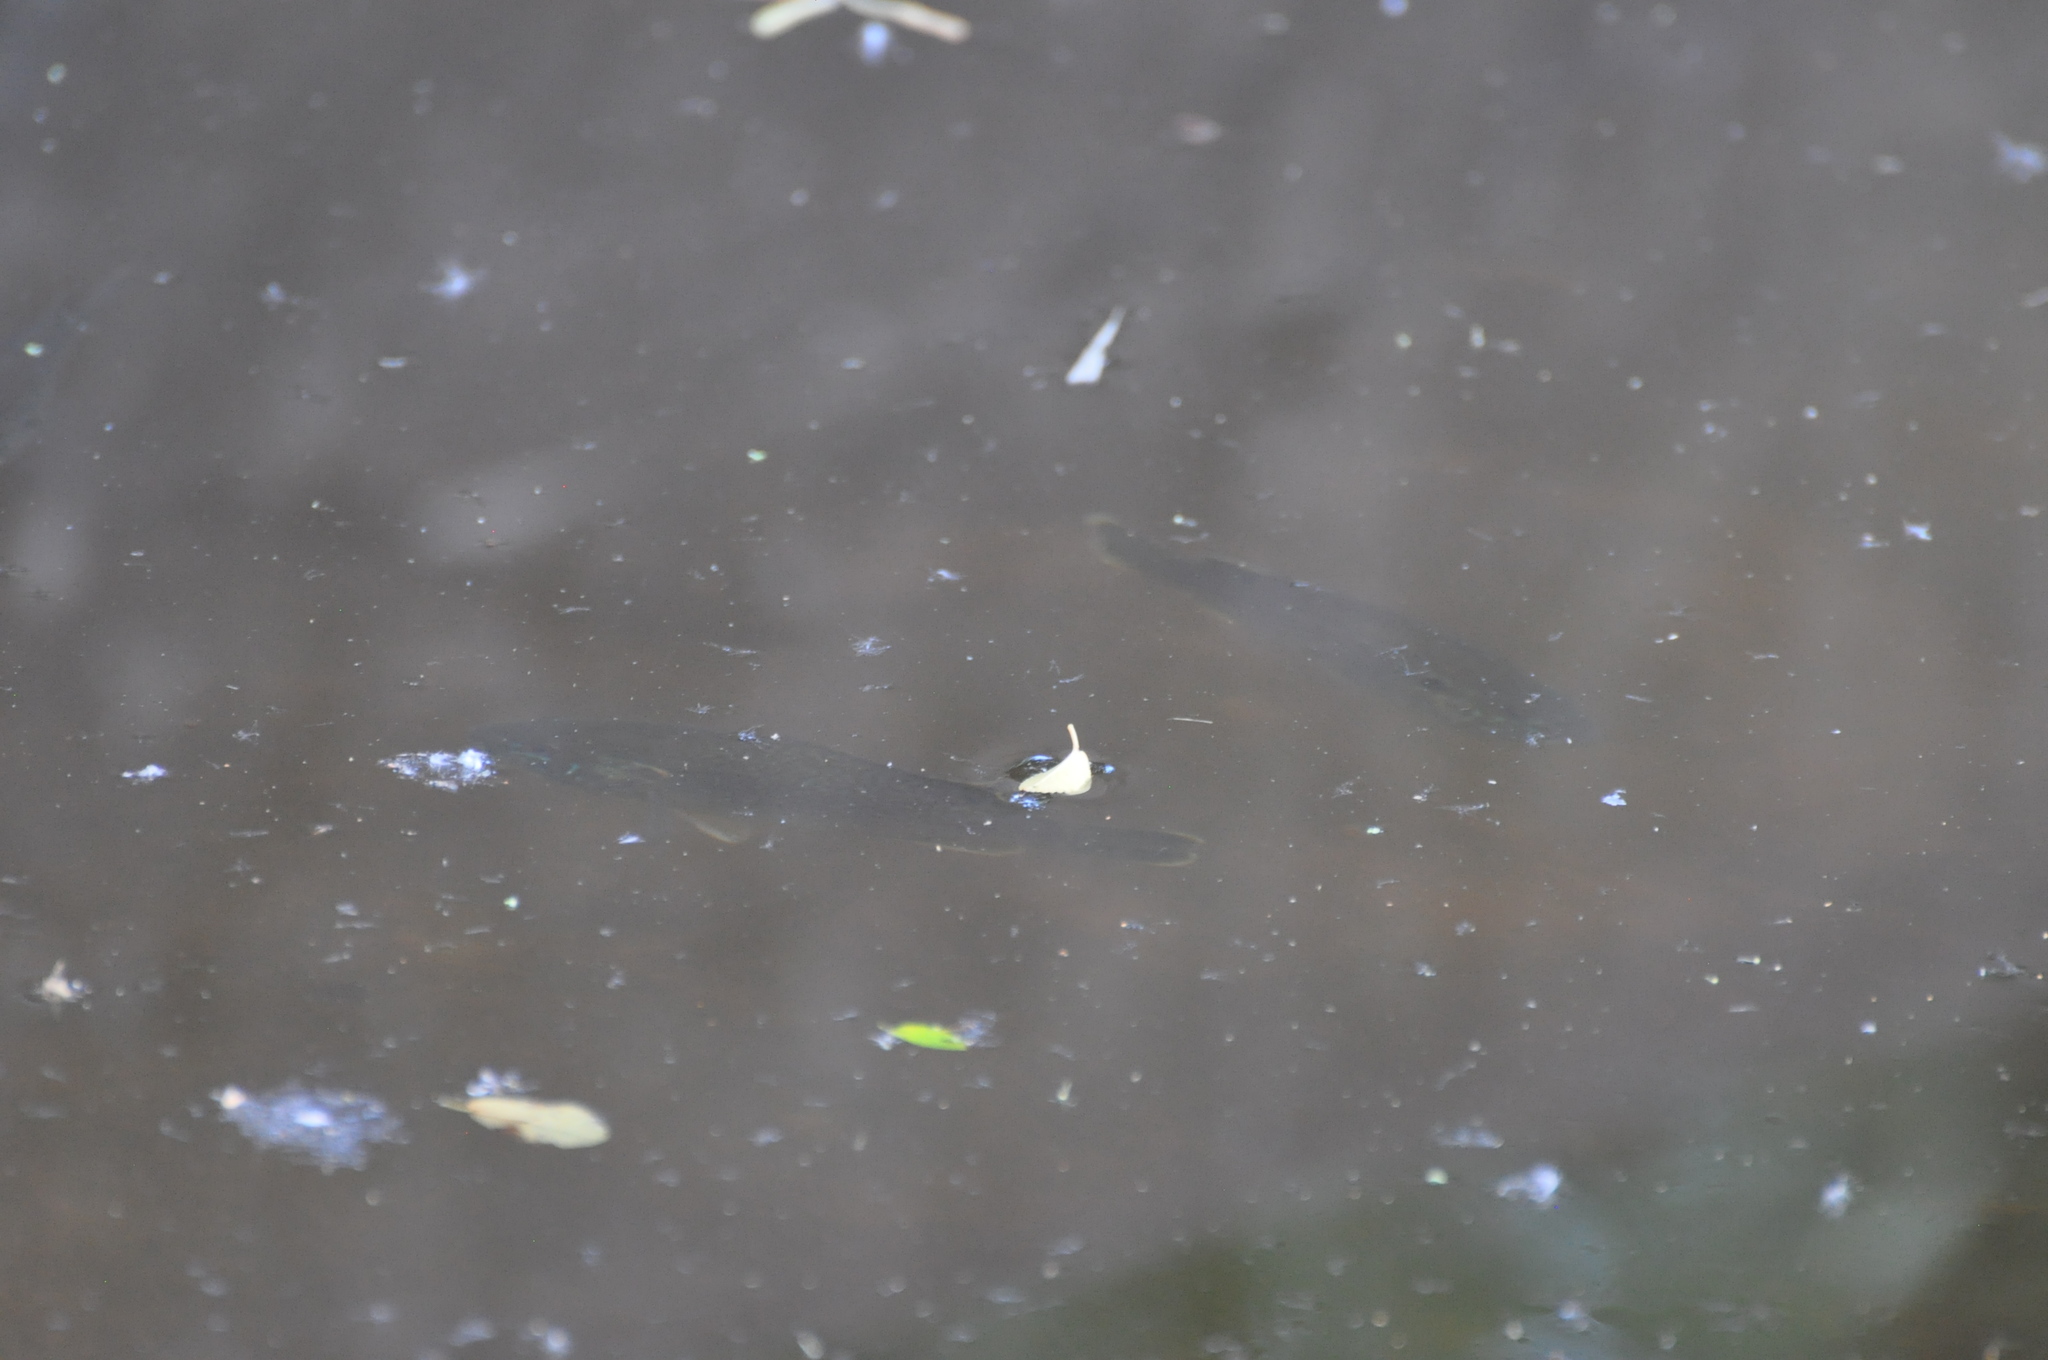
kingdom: Animalia
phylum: Chordata
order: Perciformes
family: Centrarchidae
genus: Lepomis
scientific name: Lepomis cyanellus
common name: Green sunfish
